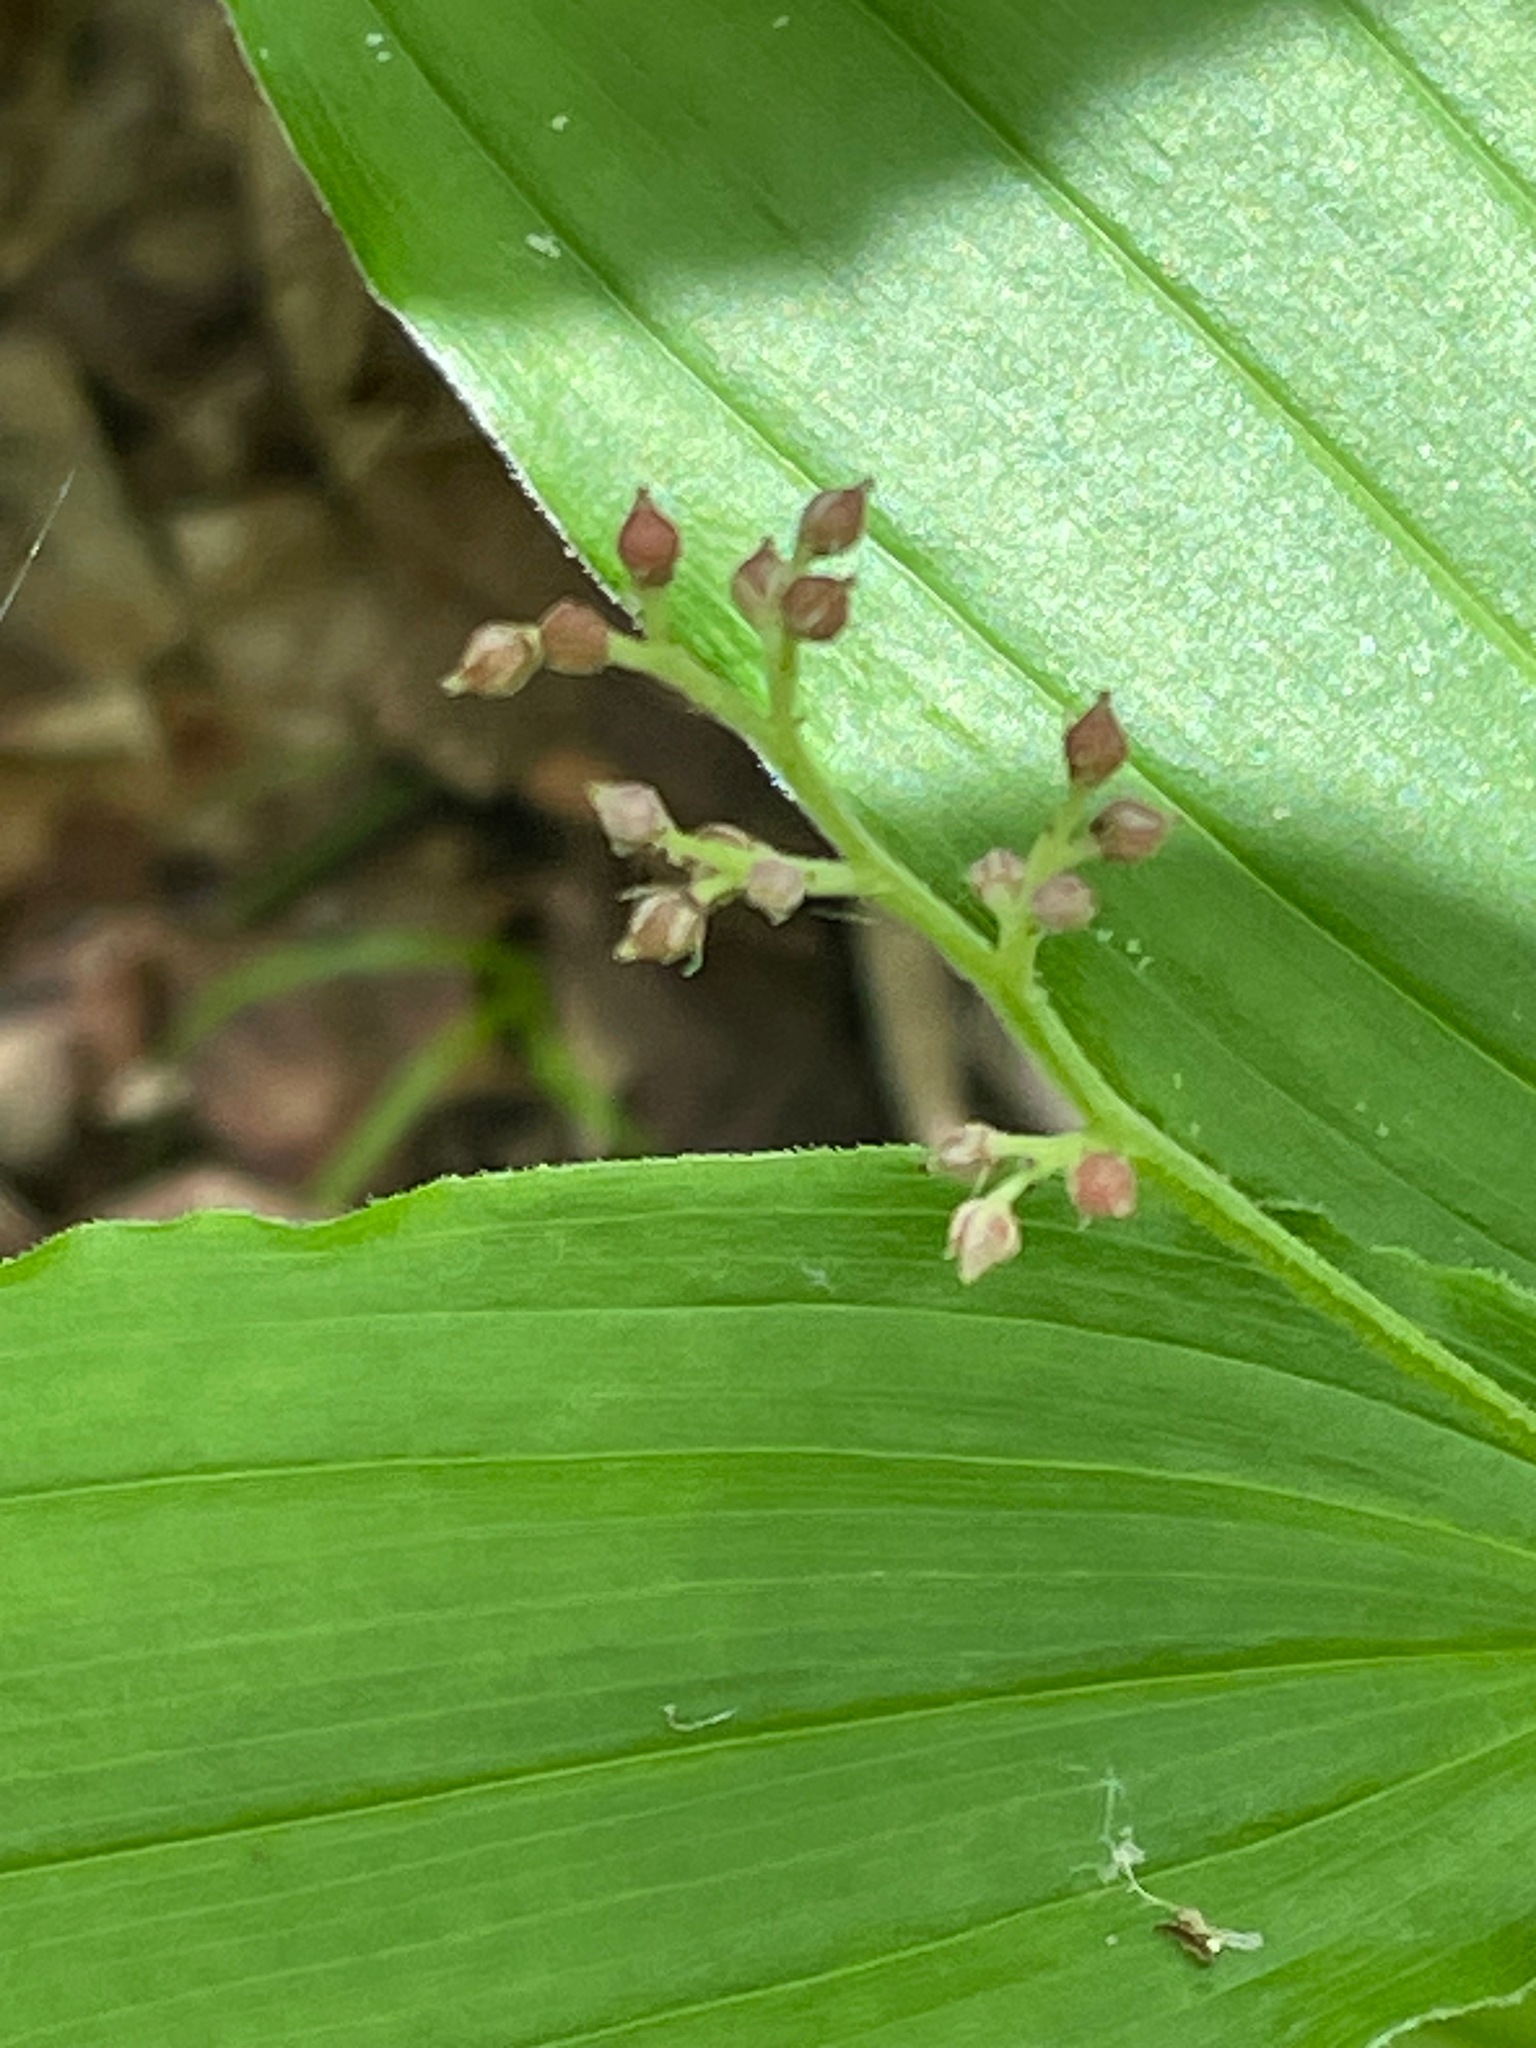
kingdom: Plantae
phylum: Tracheophyta
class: Liliopsida
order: Asparagales
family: Asparagaceae
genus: Maianthemum
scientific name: Maianthemum racemosum
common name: False spikenard
